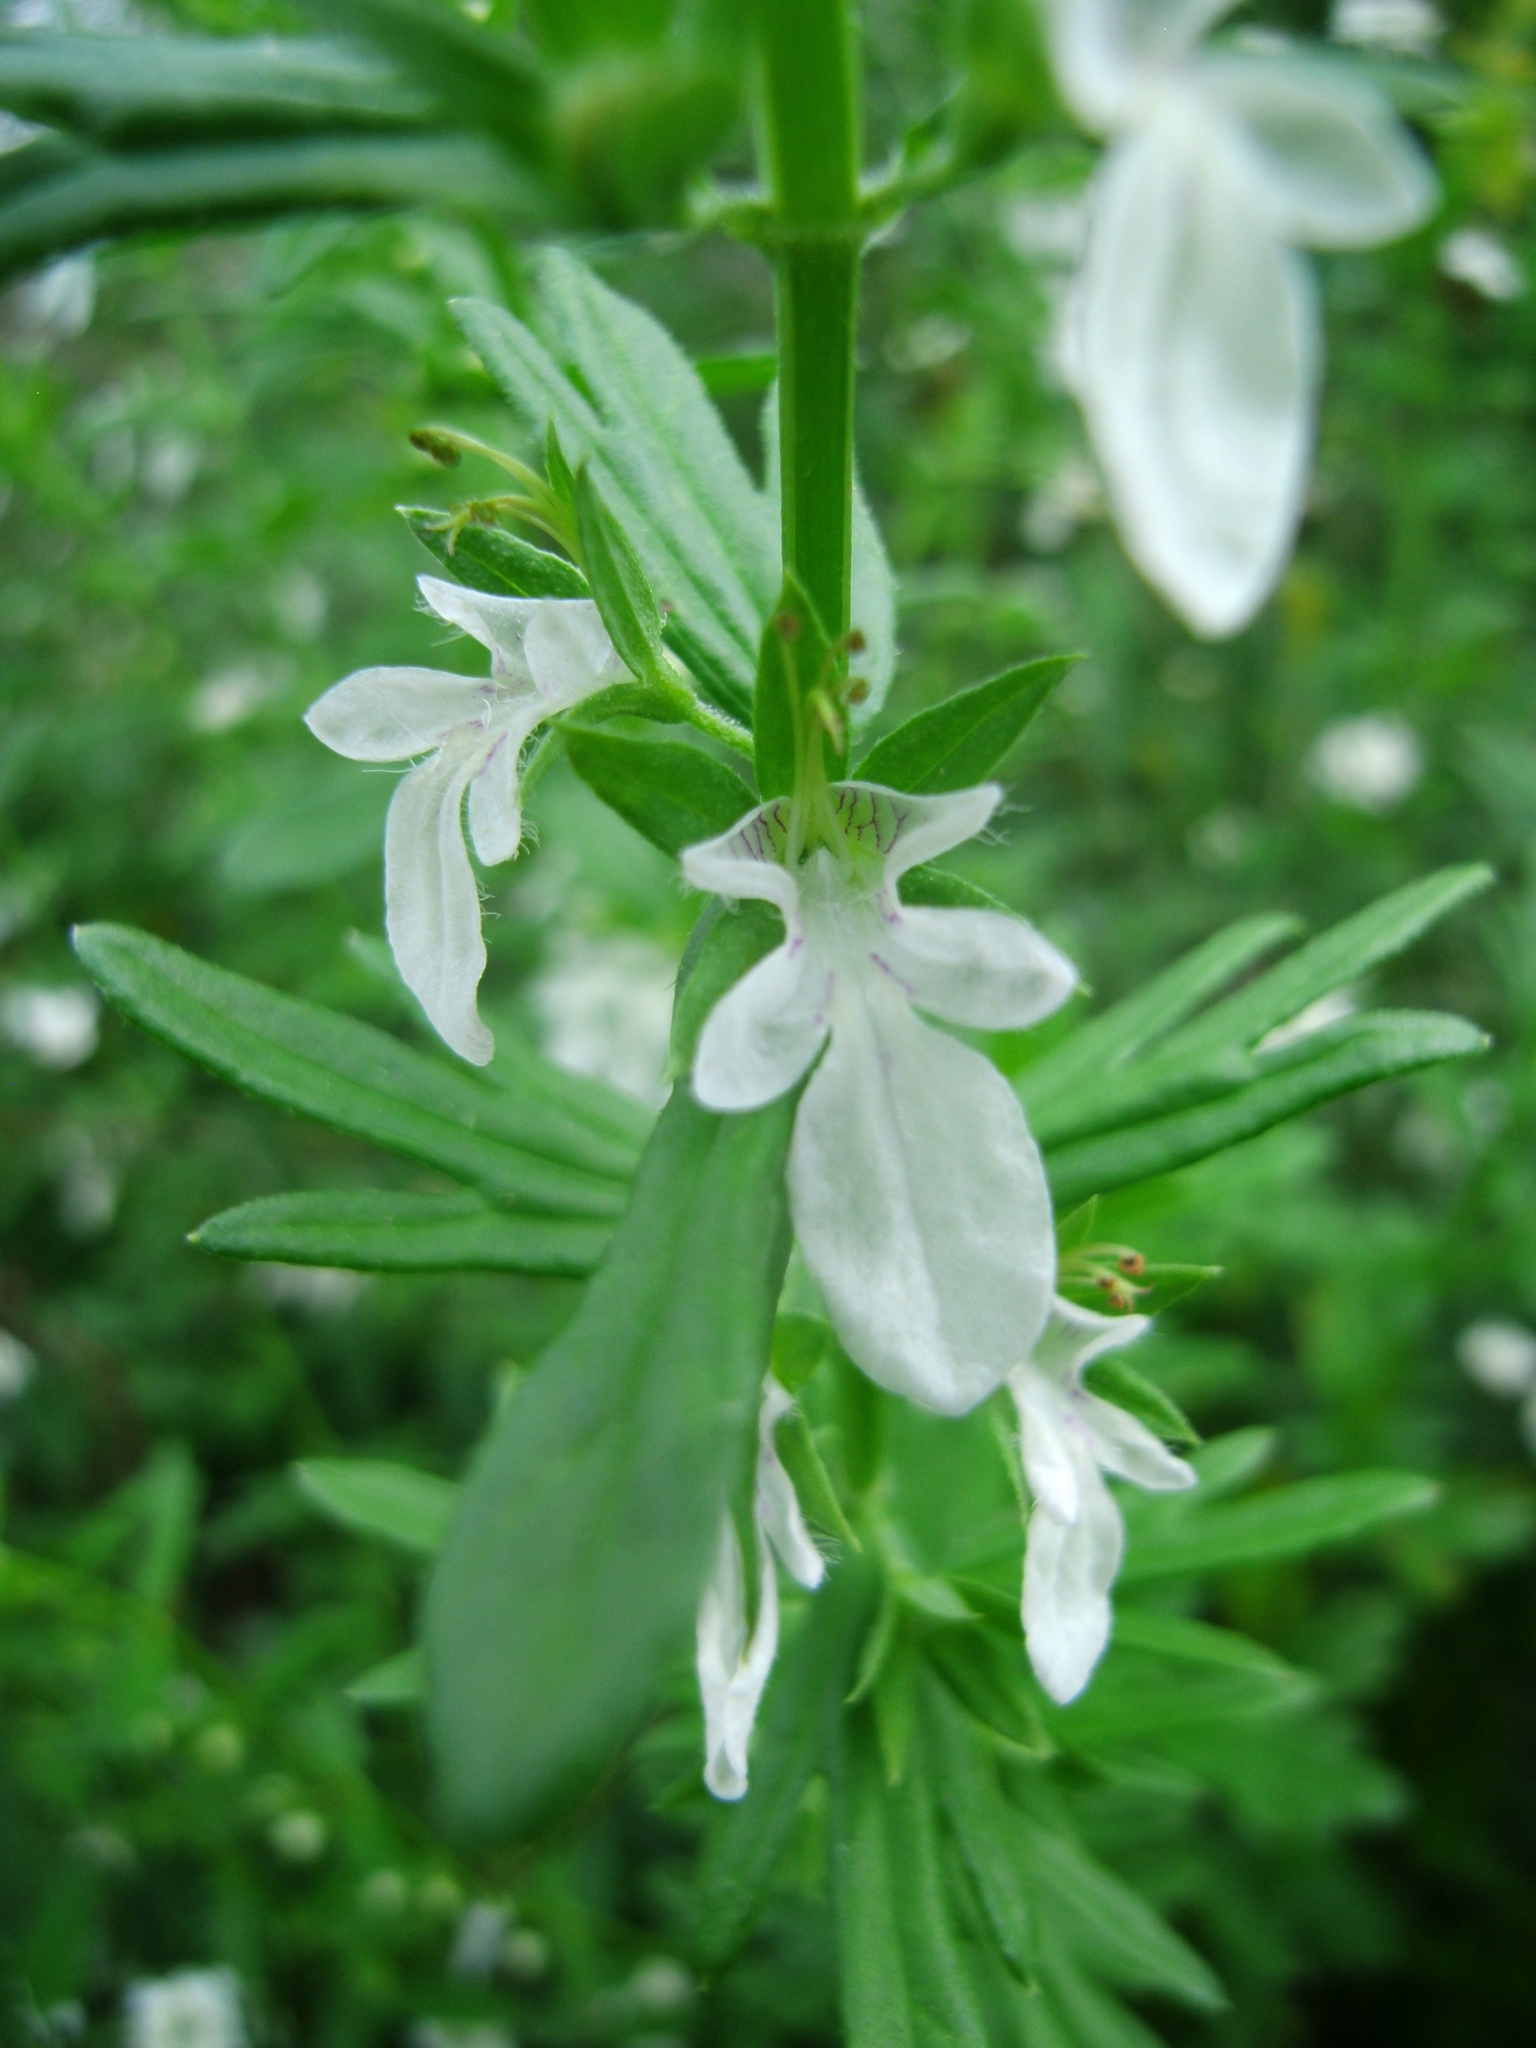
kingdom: Plantae
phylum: Tracheophyta
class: Magnoliopsida
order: Lamiales
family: Lamiaceae
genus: Teucrium
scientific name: Teucrium cubense
